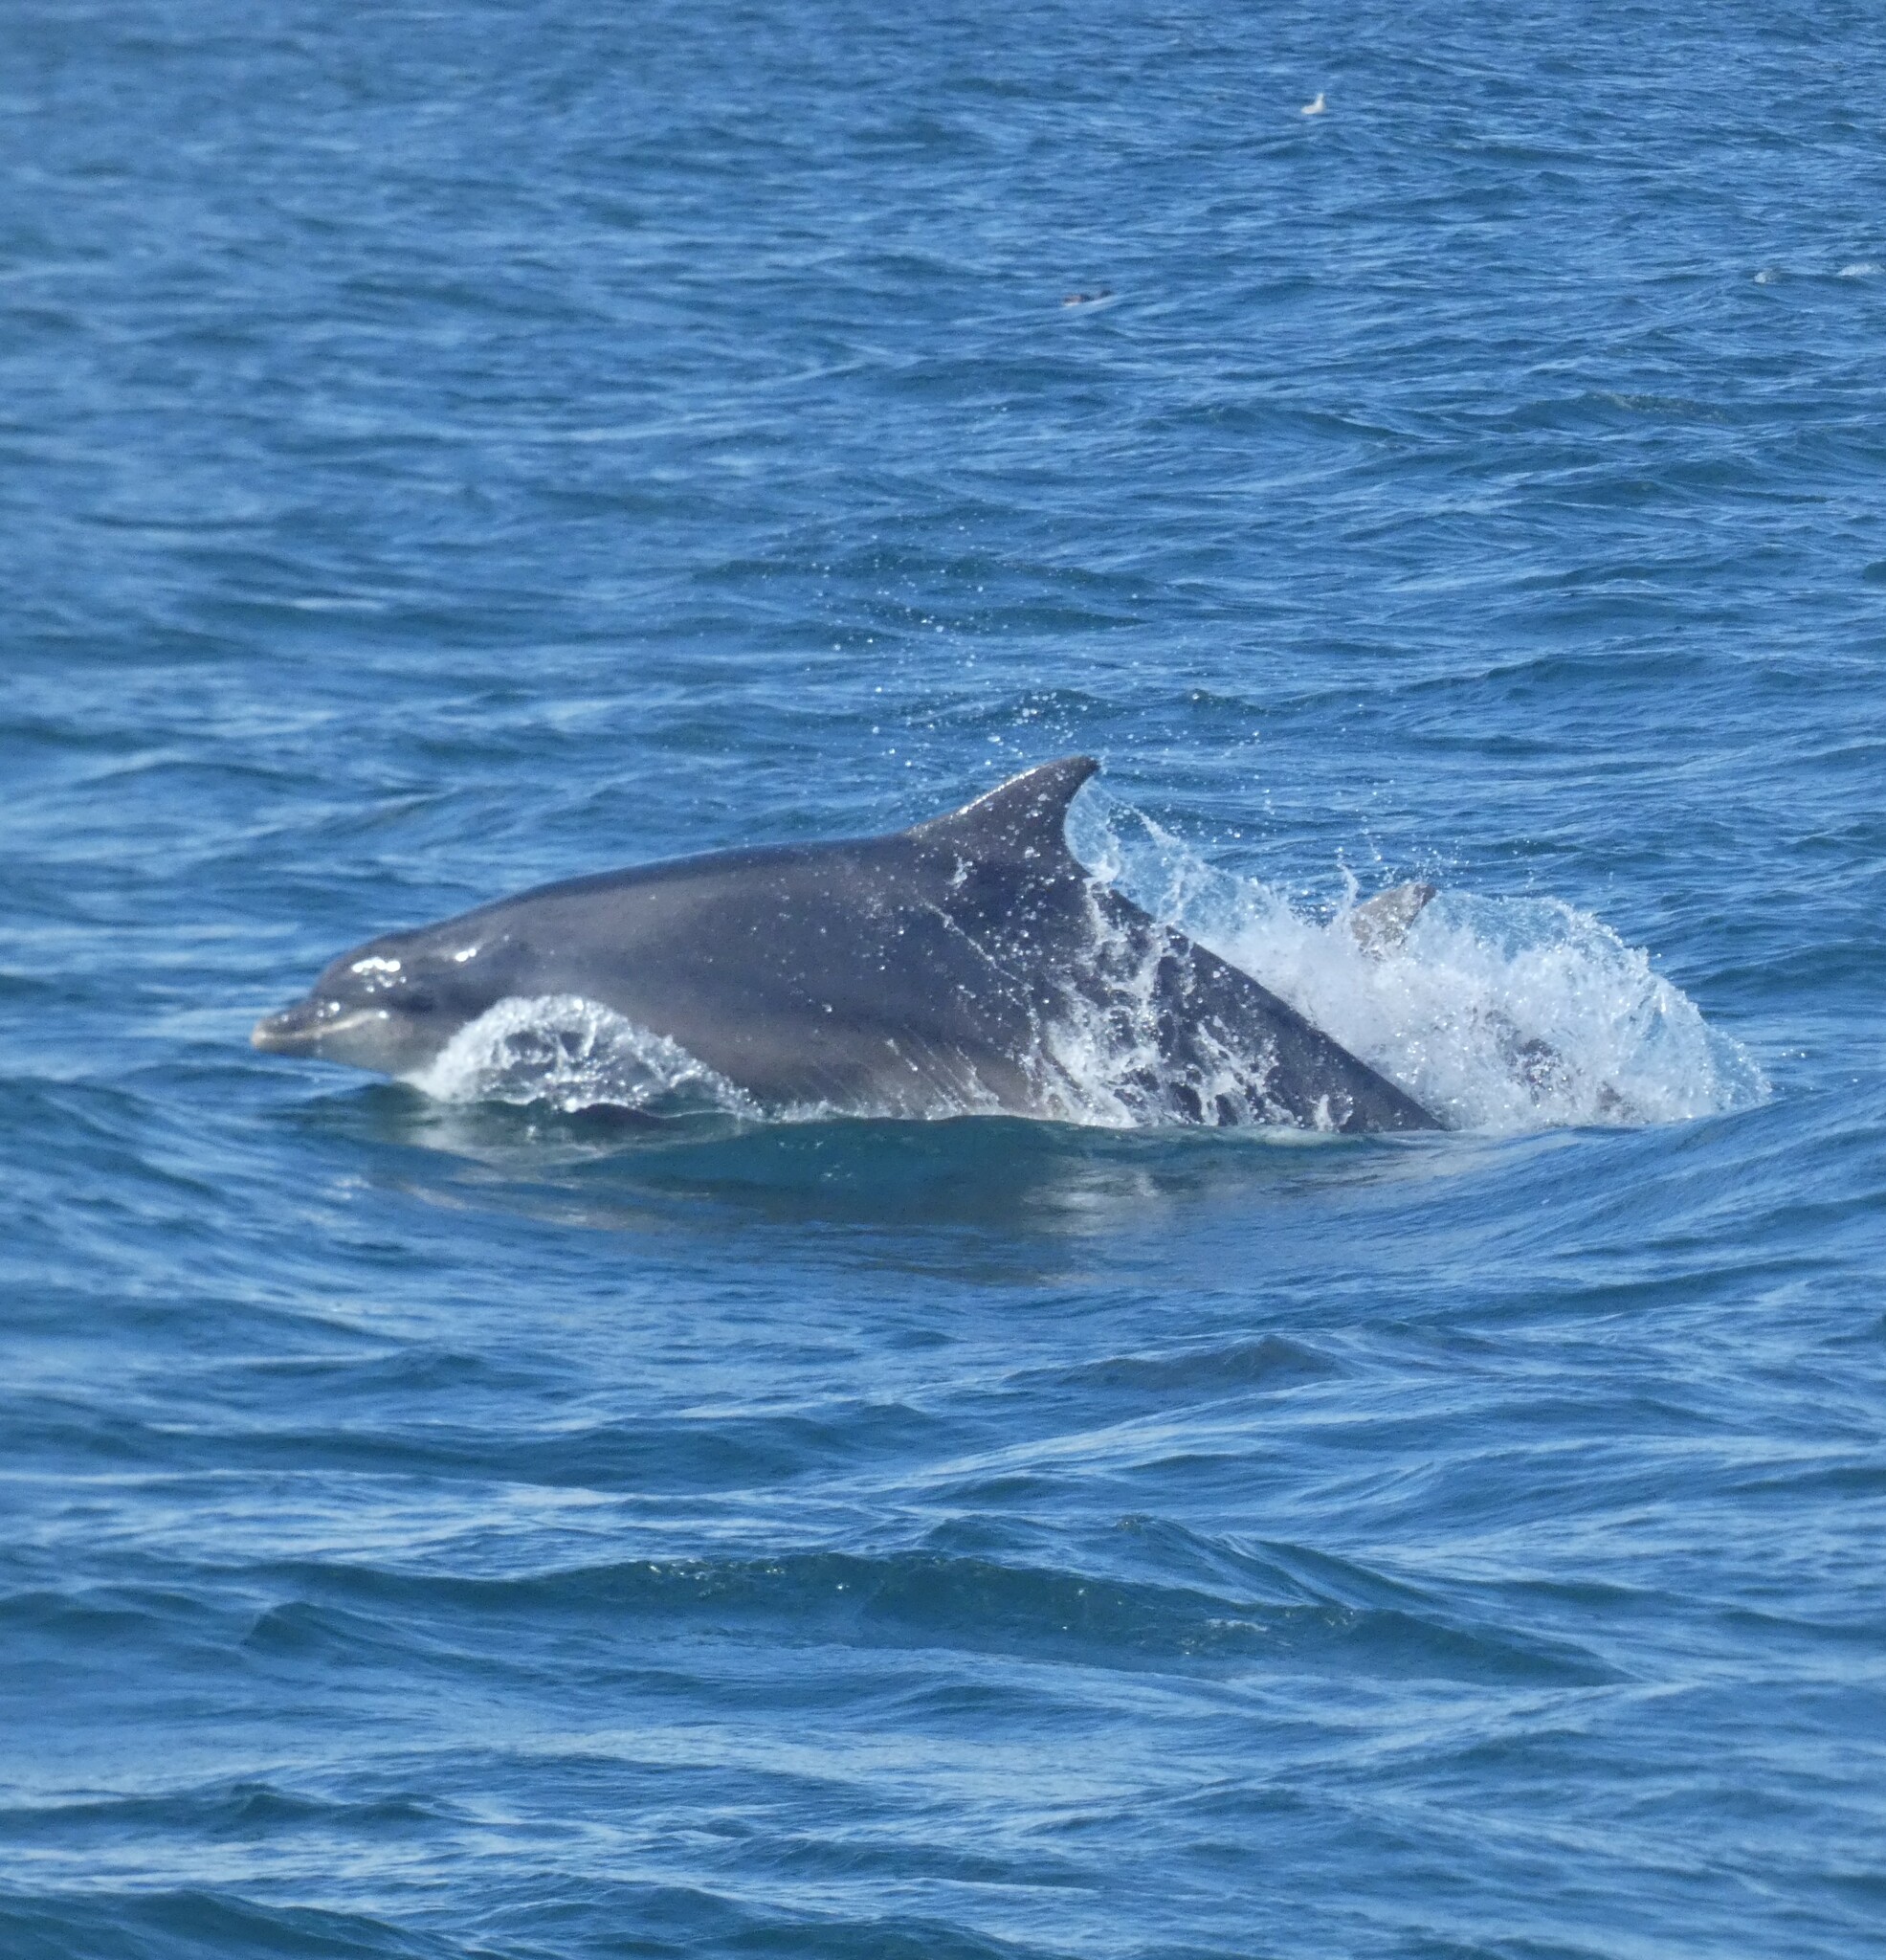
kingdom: Animalia
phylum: Chordata
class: Mammalia
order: Cetacea
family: Delphinidae
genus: Tursiops
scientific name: Tursiops truncatus
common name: Bottlenose dolphin
